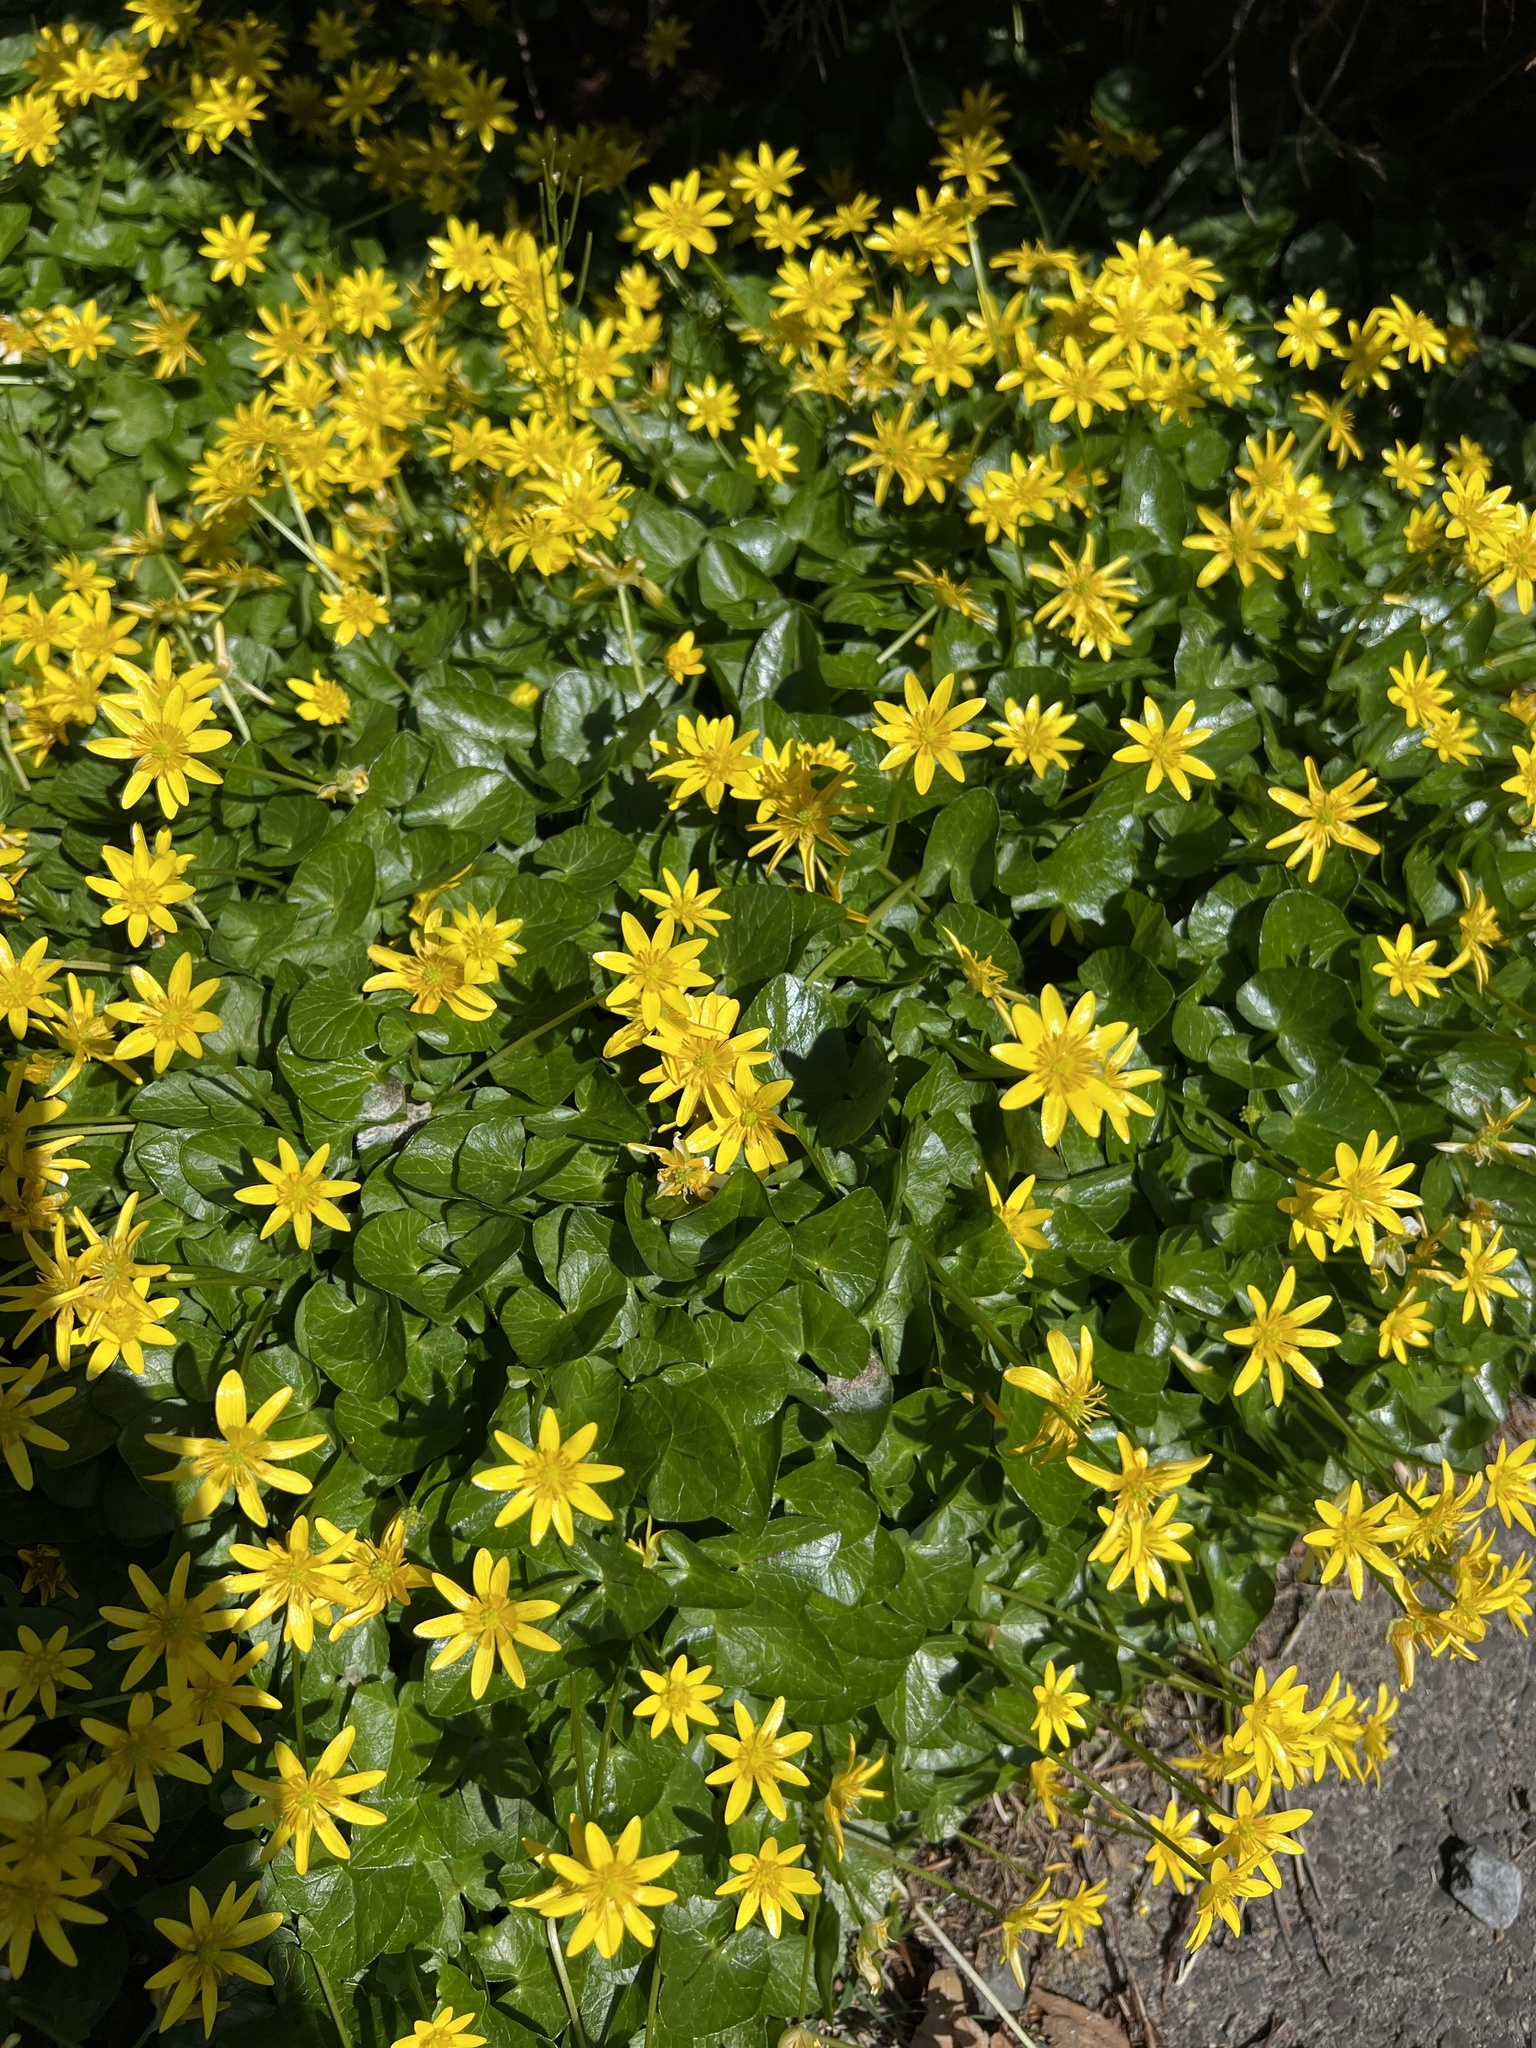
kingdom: Plantae
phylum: Tracheophyta
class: Magnoliopsida
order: Ranunculales
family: Ranunculaceae
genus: Ficaria
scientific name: Ficaria verna
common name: Lesser celandine
